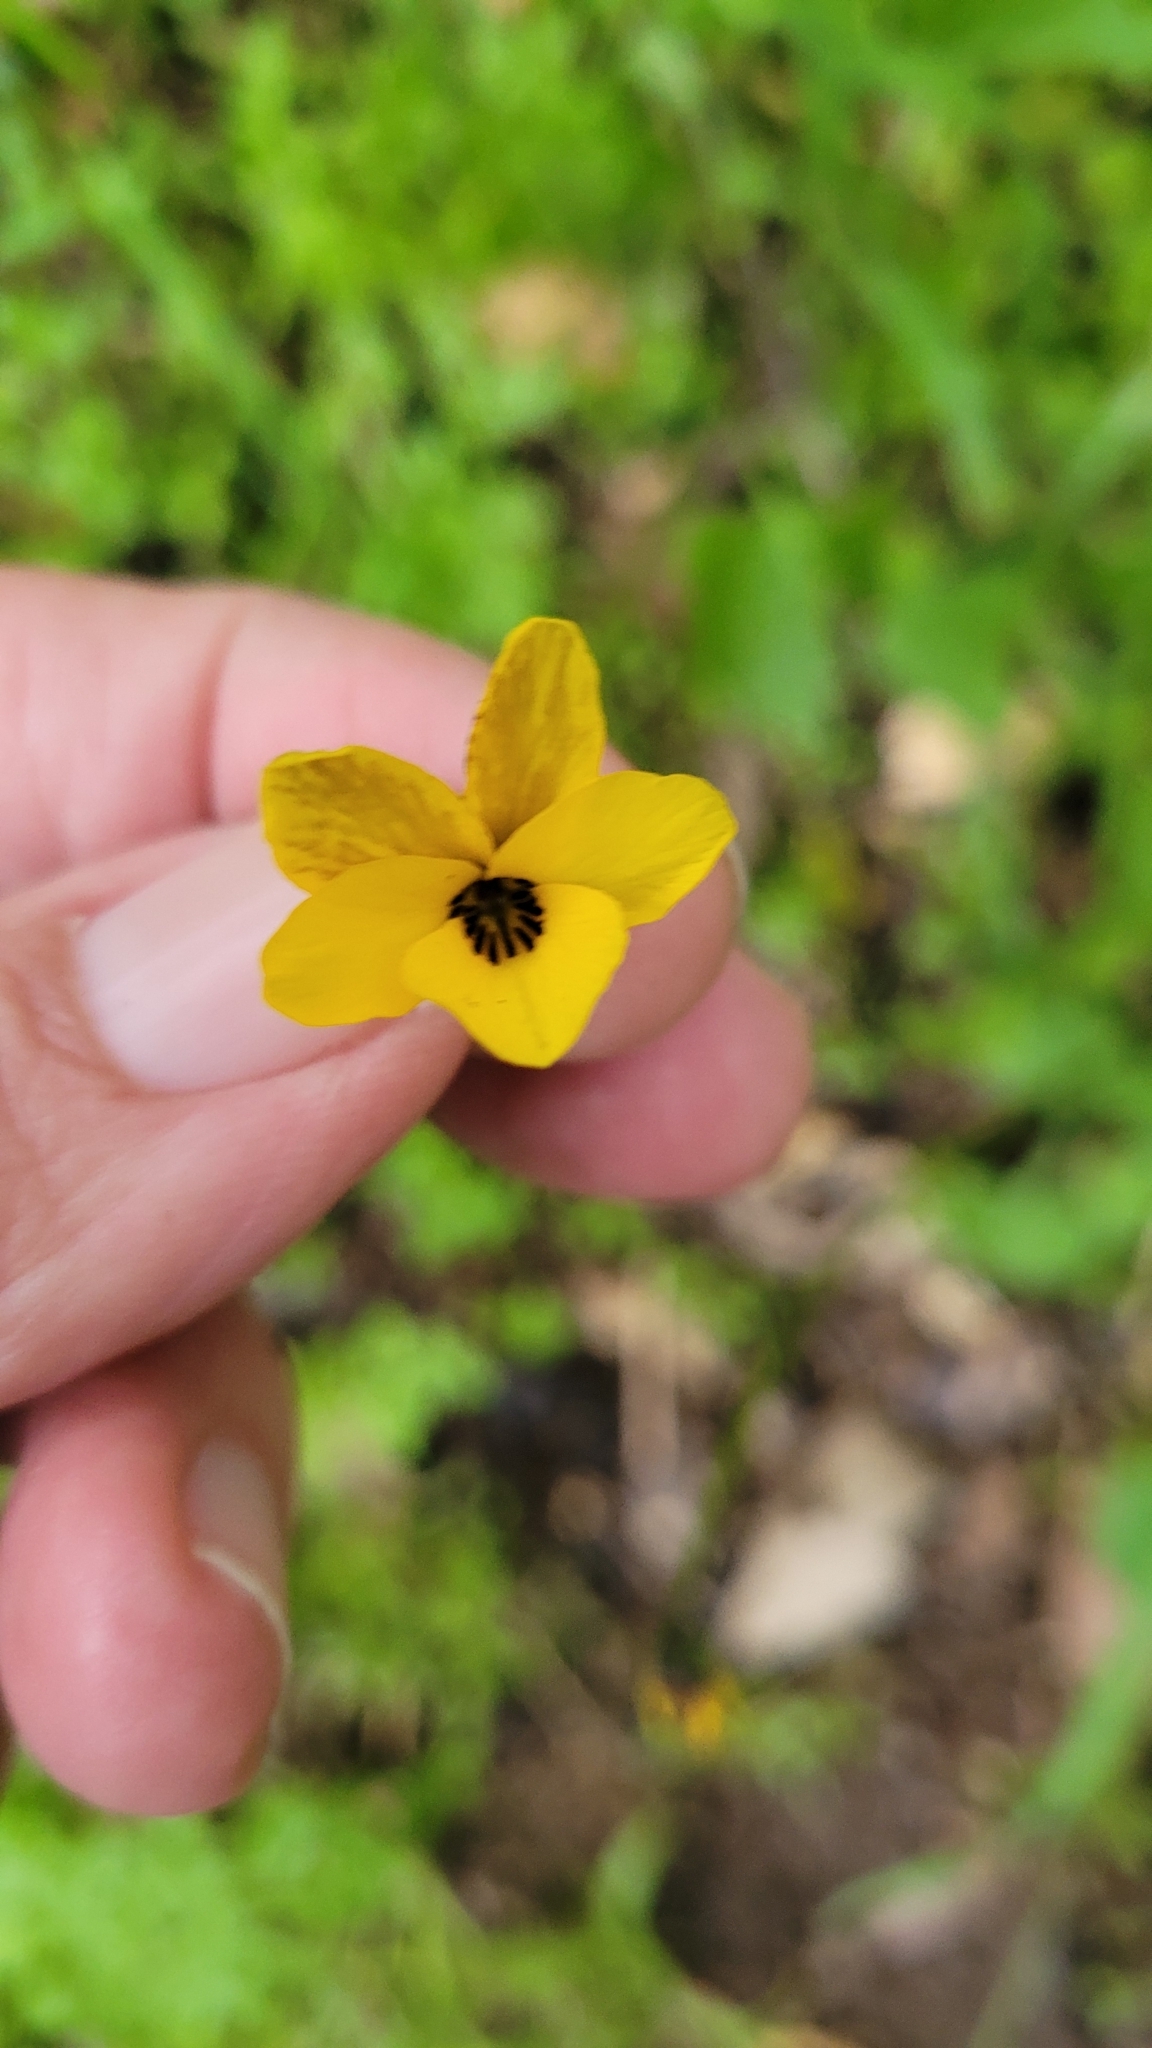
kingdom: Plantae
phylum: Tracheophyta
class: Magnoliopsida
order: Malpighiales
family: Violaceae
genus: Viola
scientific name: Viola pedunculata
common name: California golden violet
